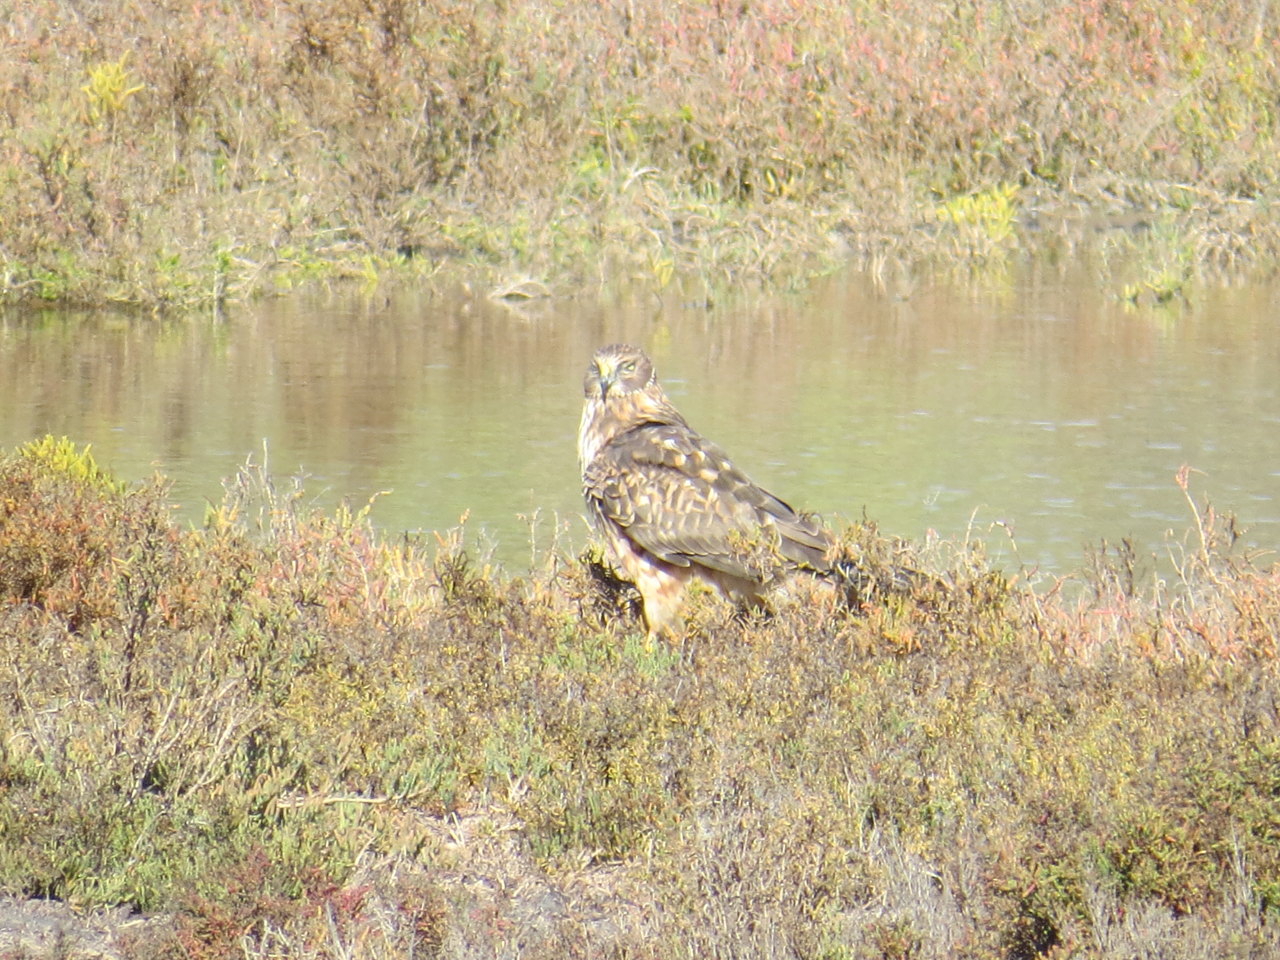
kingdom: Animalia
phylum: Chordata
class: Aves
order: Accipitriformes
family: Accipitridae
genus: Circus
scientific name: Circus cyaneus
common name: Hen harrier
